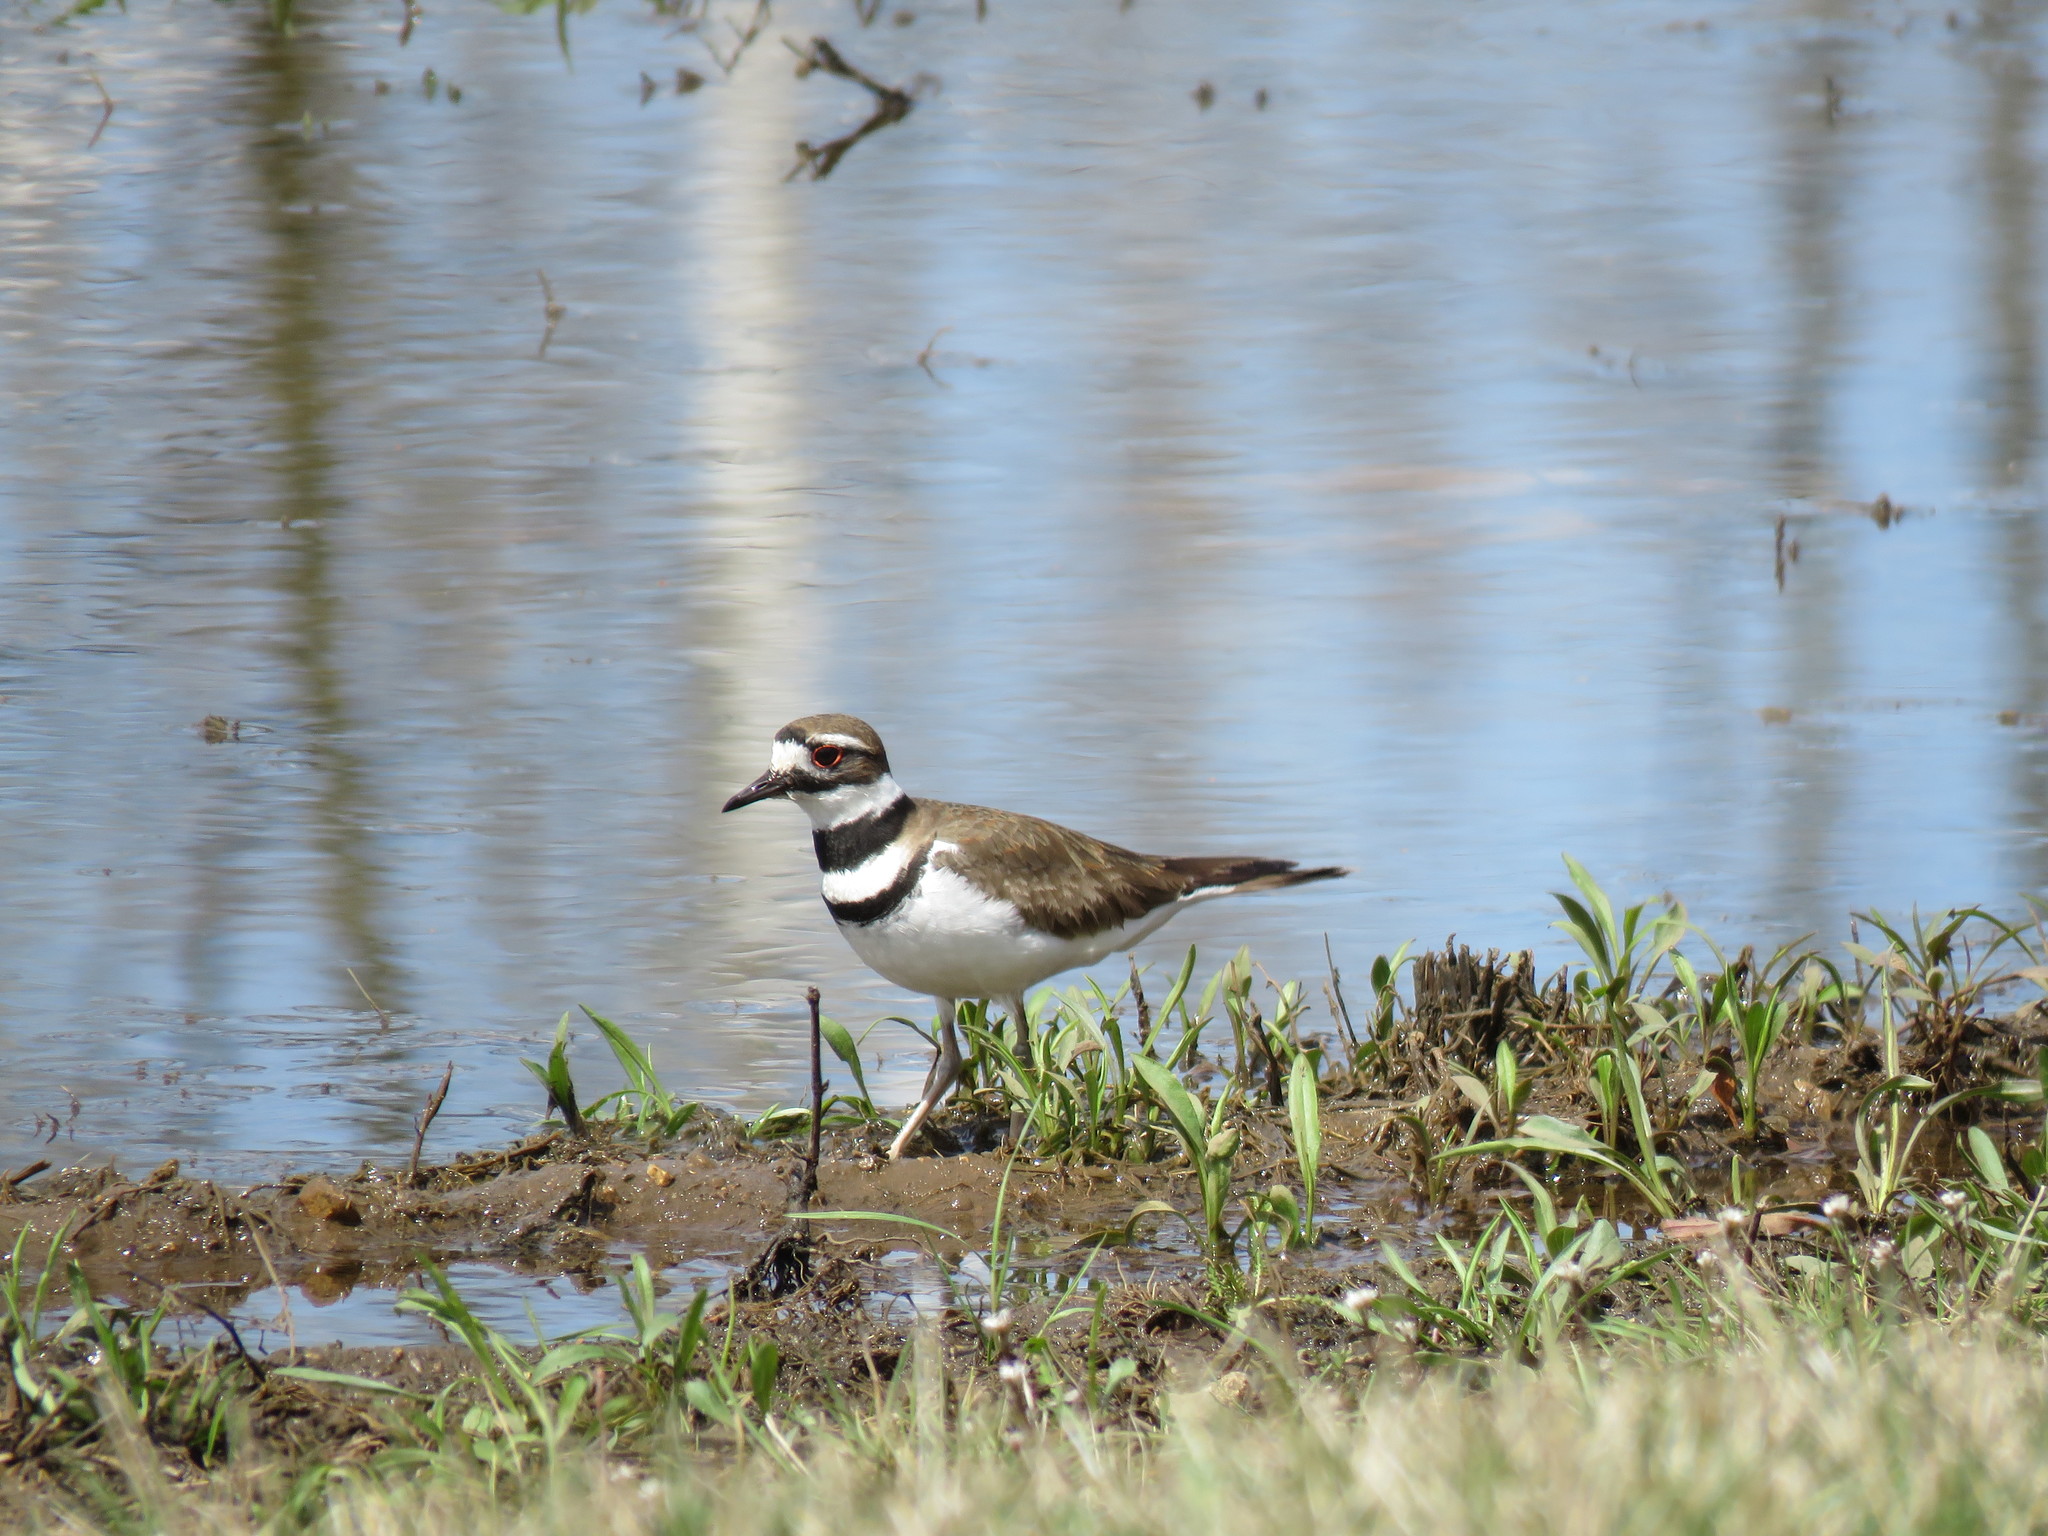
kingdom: Animalia
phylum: Chordata
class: Aves
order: Charadriiformes
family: Charadriidae
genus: Charadrius
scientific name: Charadrius vociferus
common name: Killdeer
